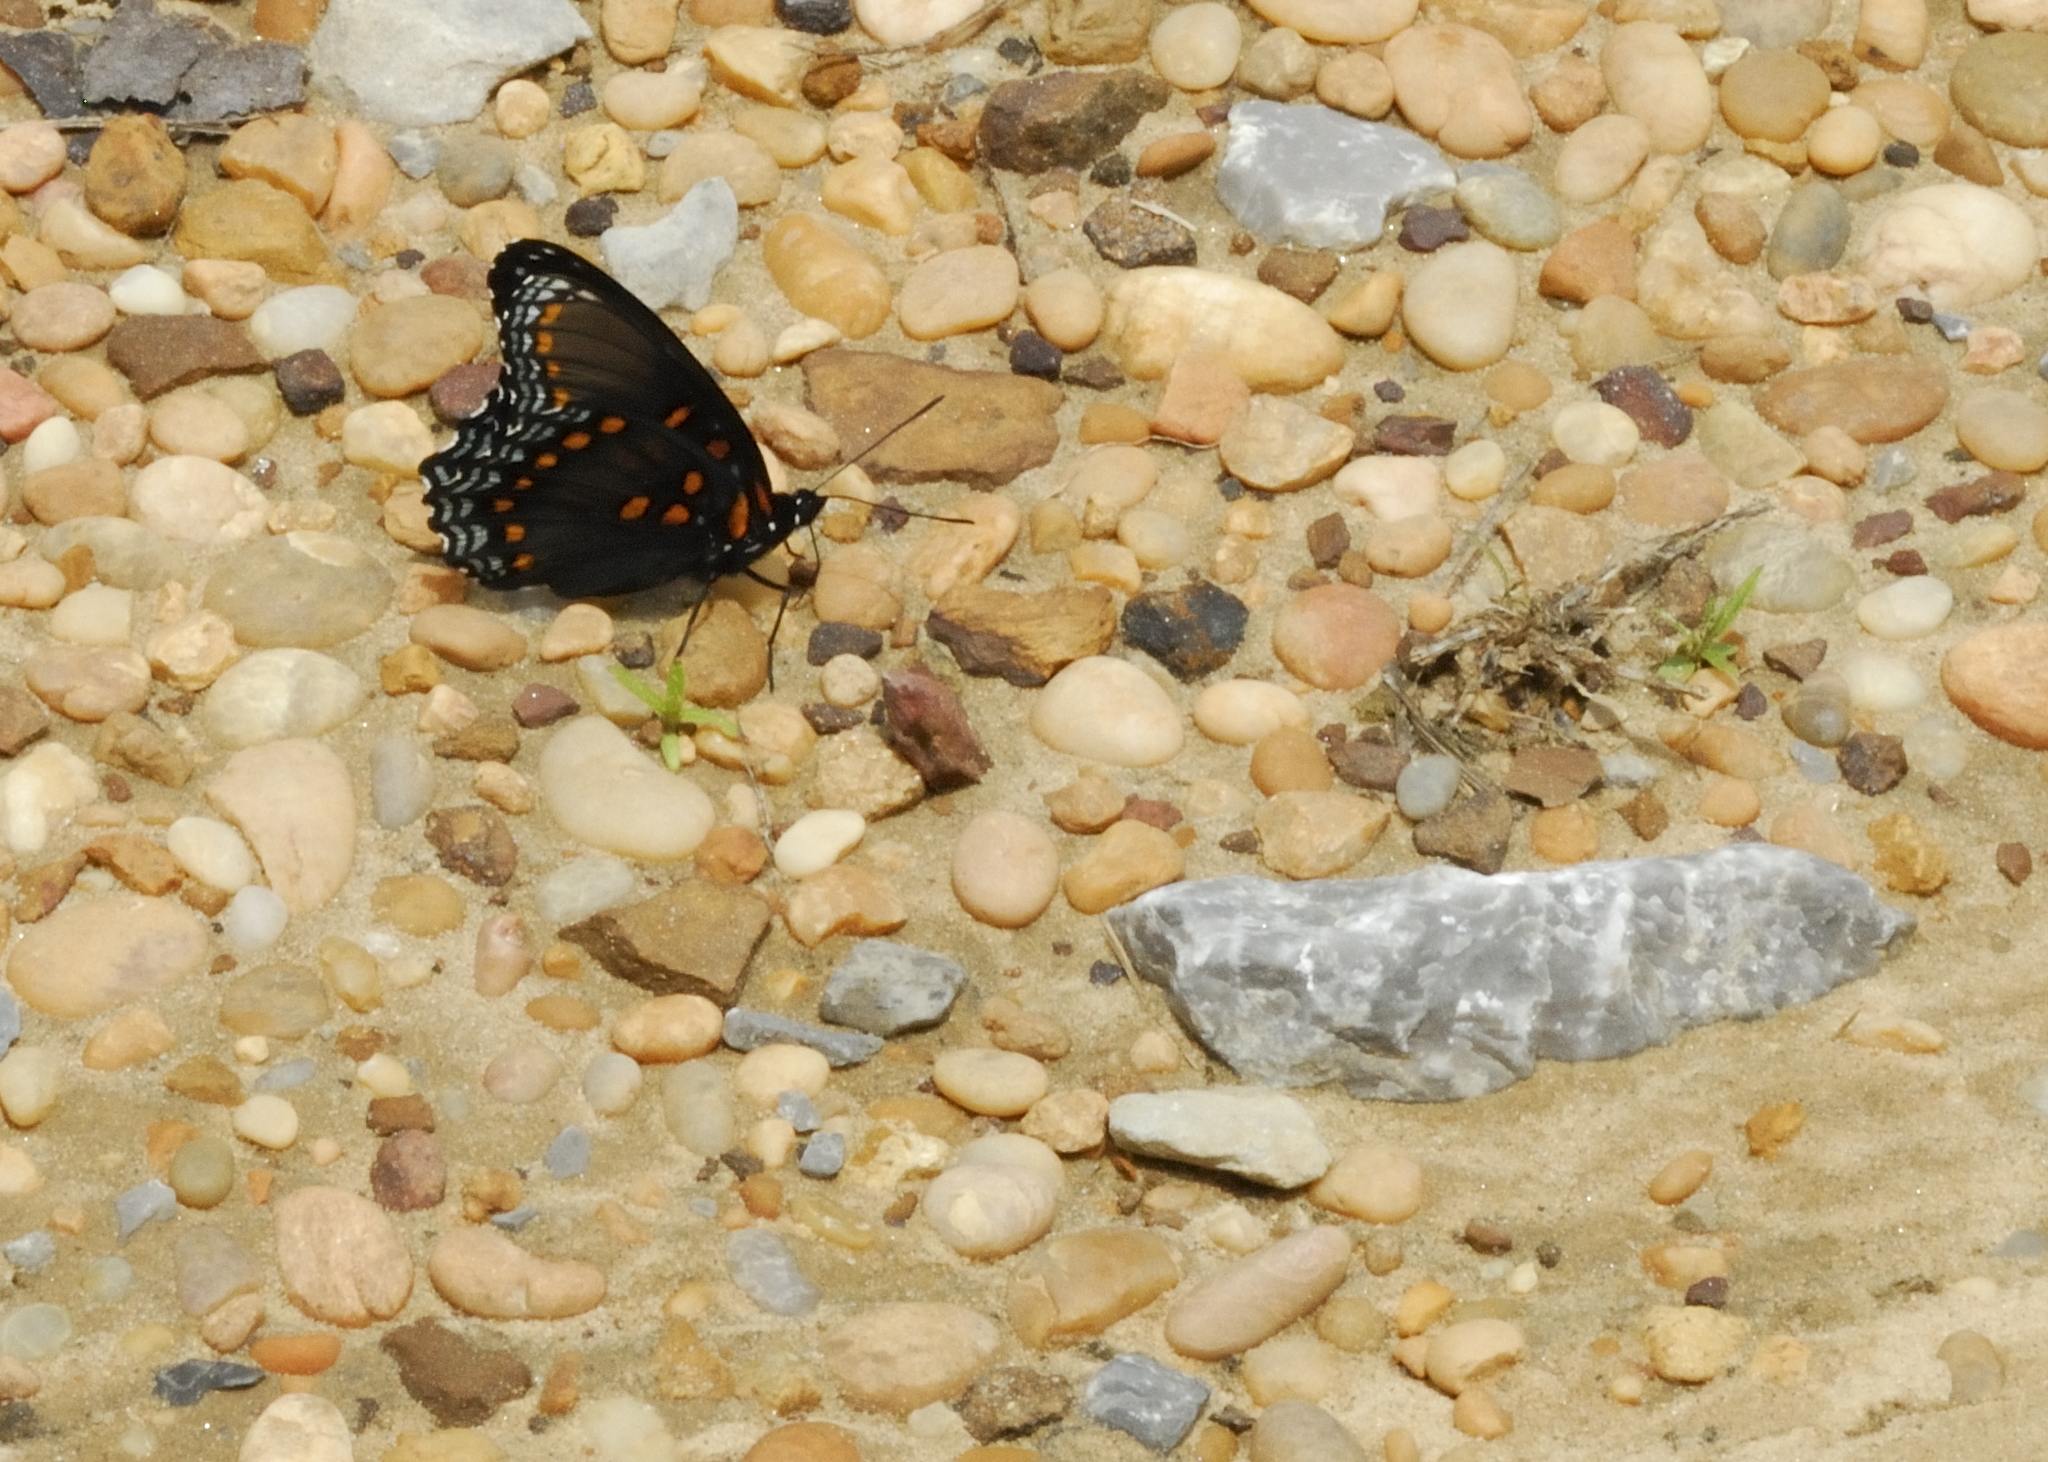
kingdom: Animalia
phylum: Arthropoda
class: Insecta
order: Lepidoptera
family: Nymphalidae
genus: Limenitis
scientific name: Limenitis astyanax
